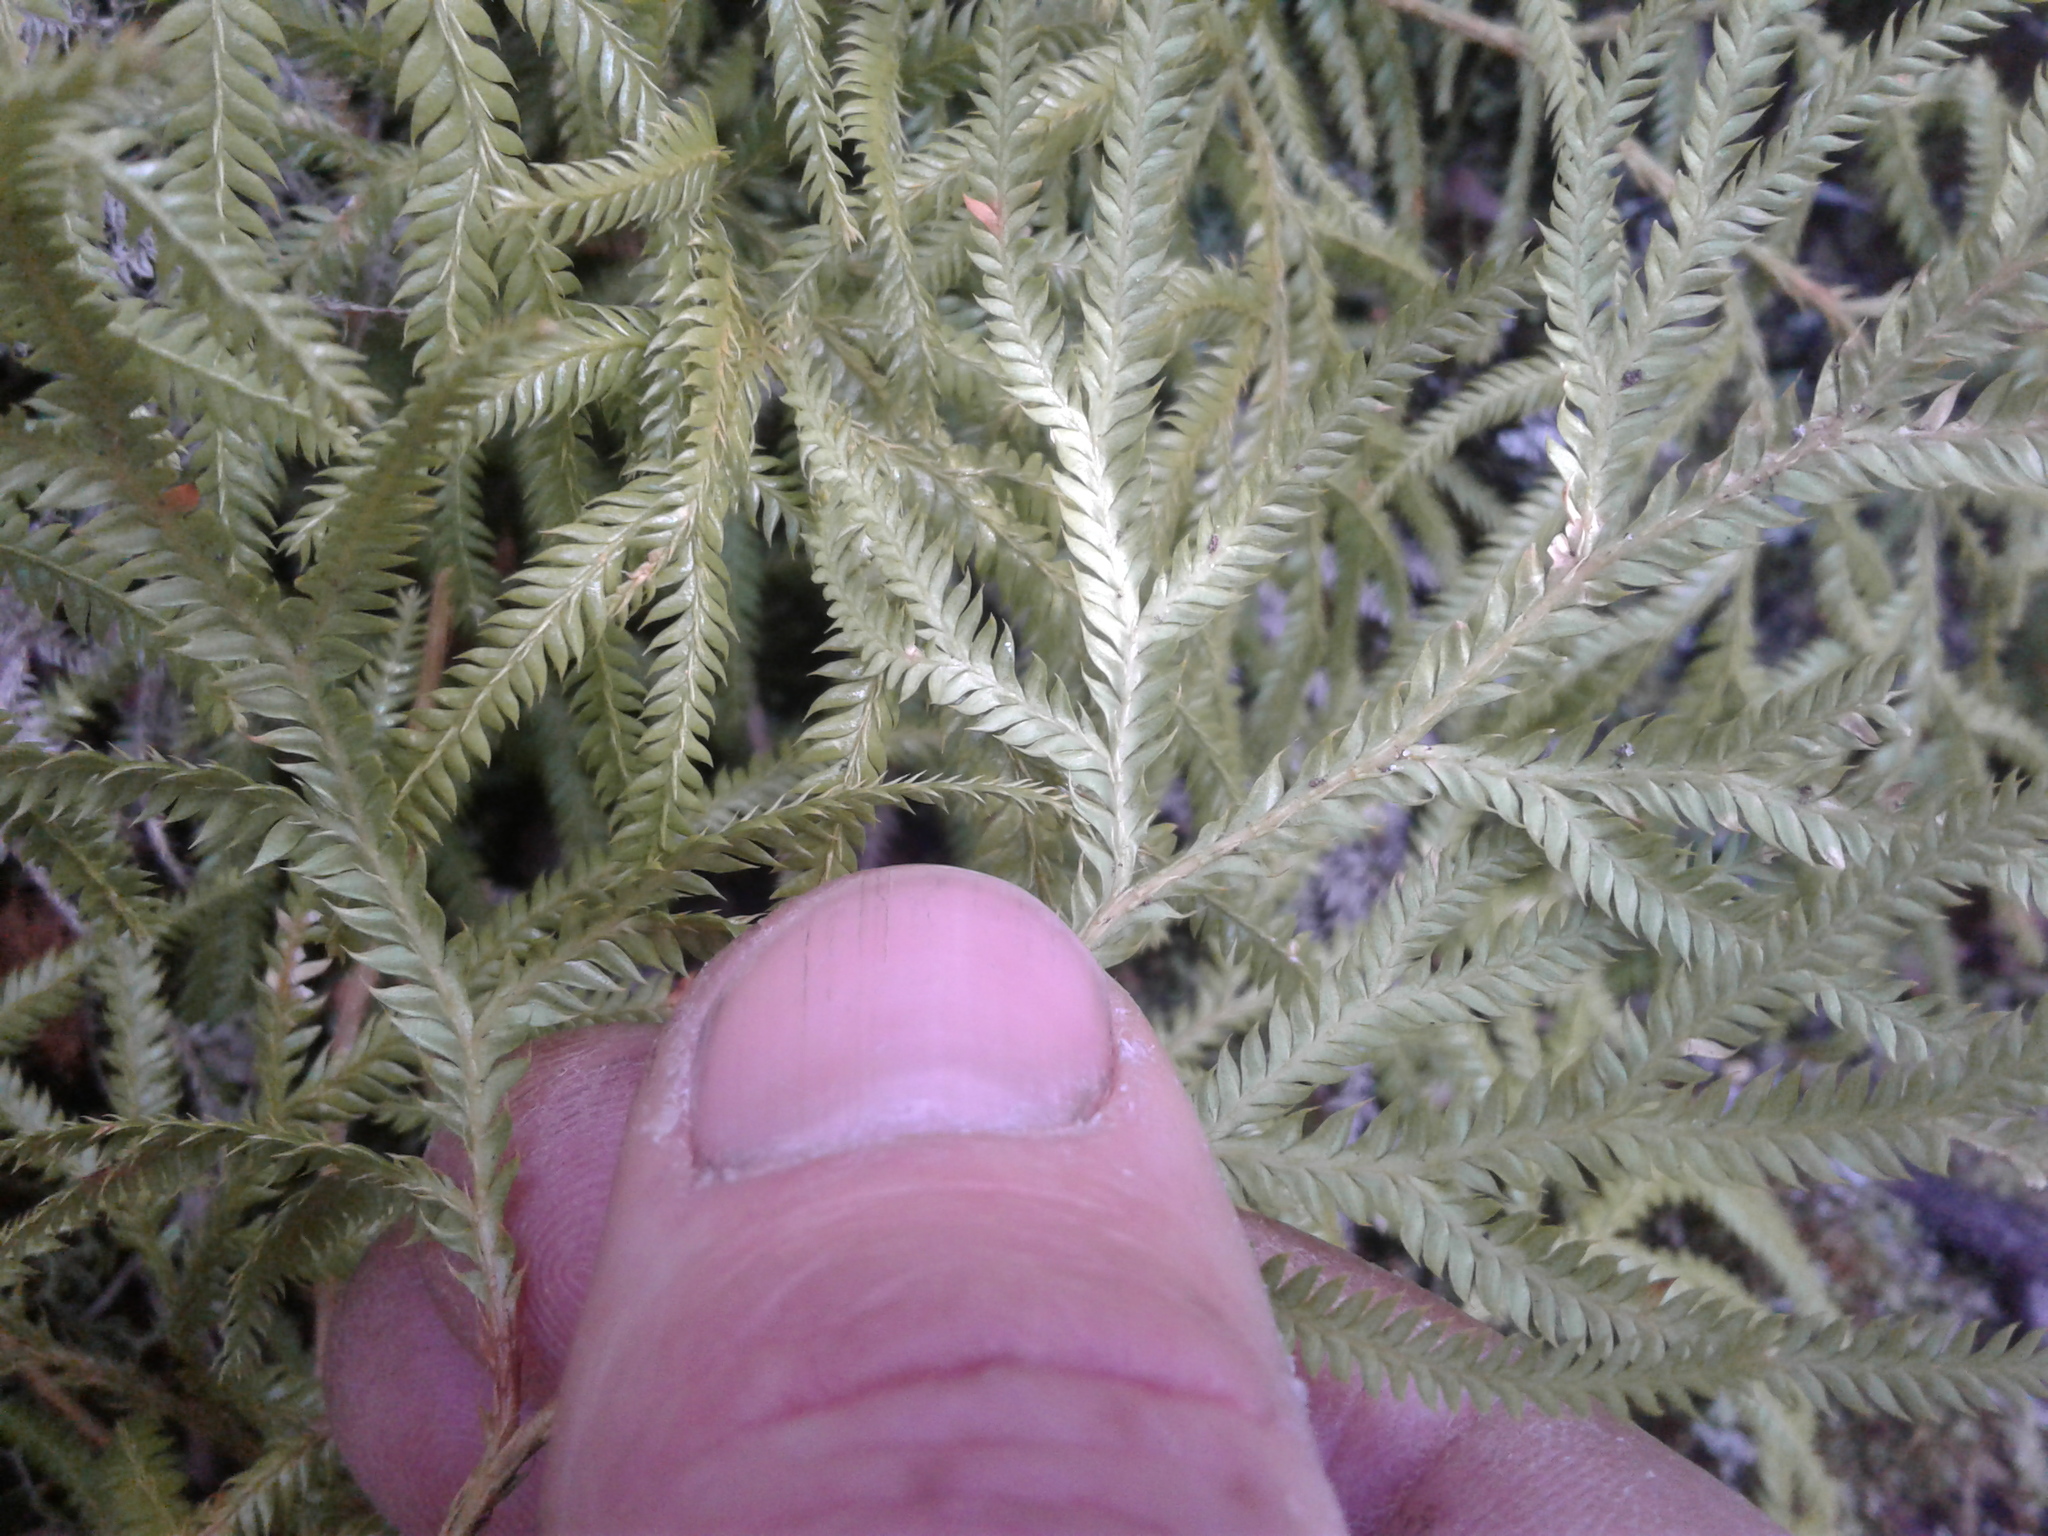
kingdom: Plantae
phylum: Tracheophyta
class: Lycopodiopsida
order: Lycopodiales
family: Lycopodiaceae
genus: Lycopodium
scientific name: Lycopodium volubile
